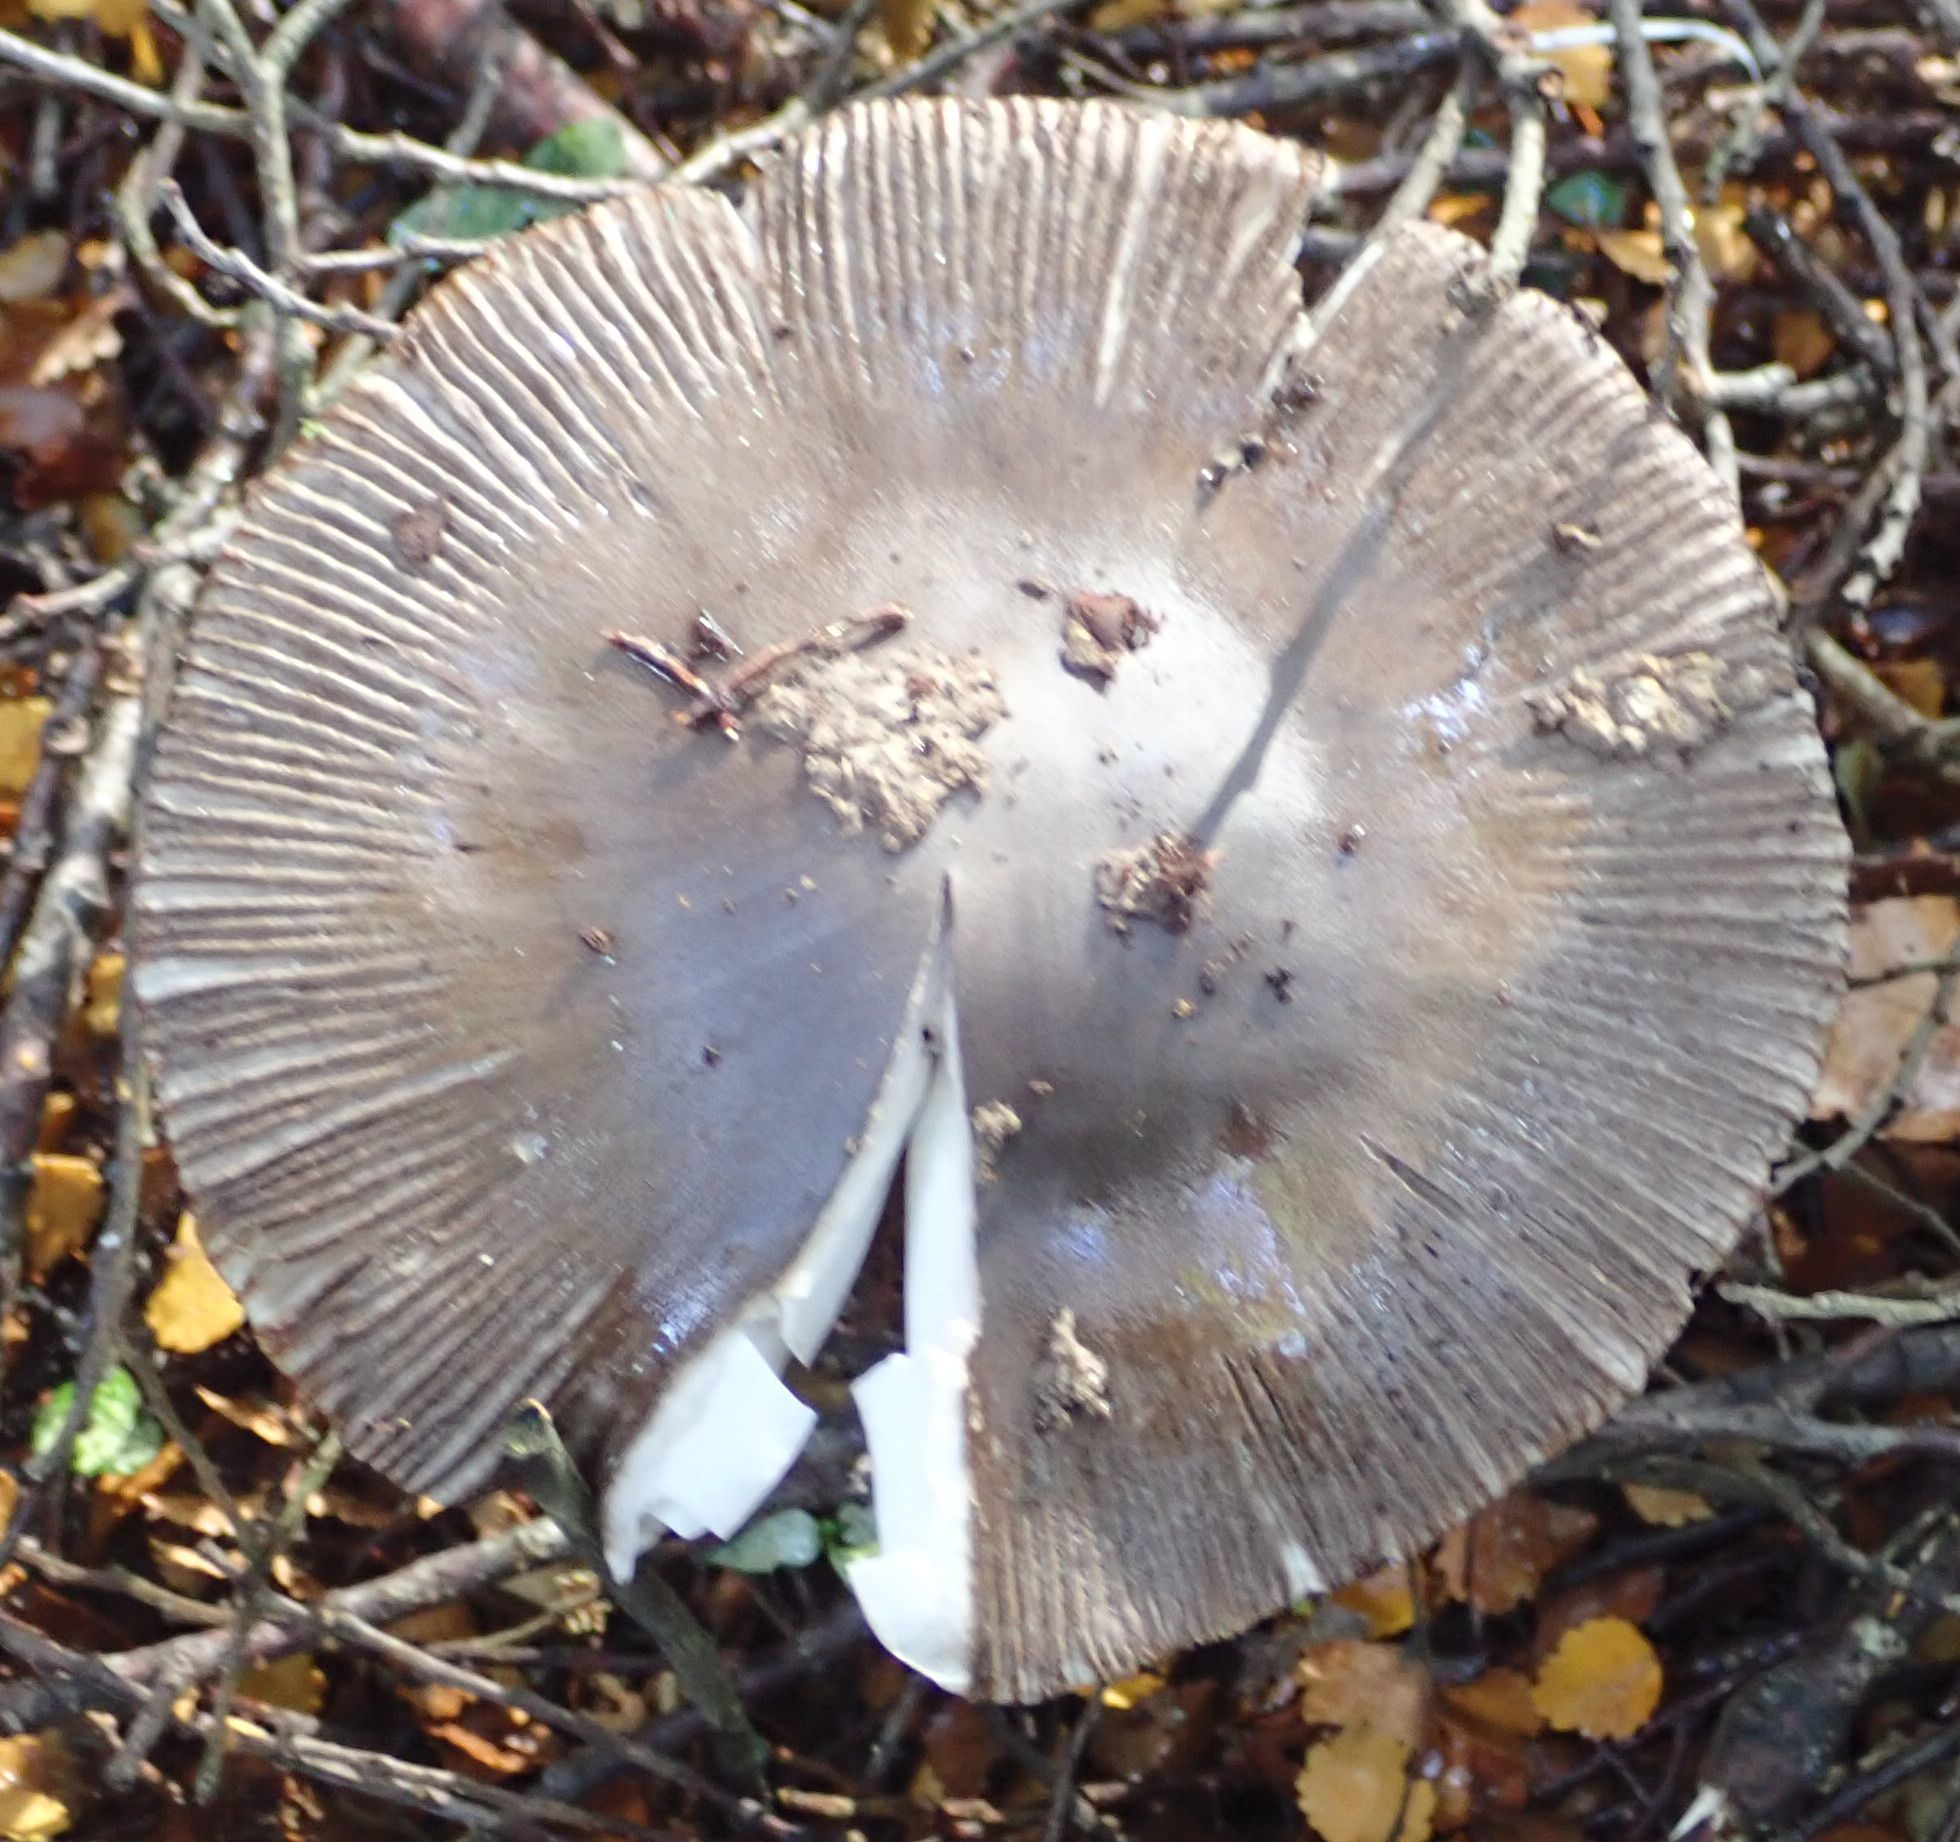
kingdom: Fungi
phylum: Basidiomycota
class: Agaricomycetes
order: Agaricales
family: Amanitaceae
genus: Amanita
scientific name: Amanita pekeoides
